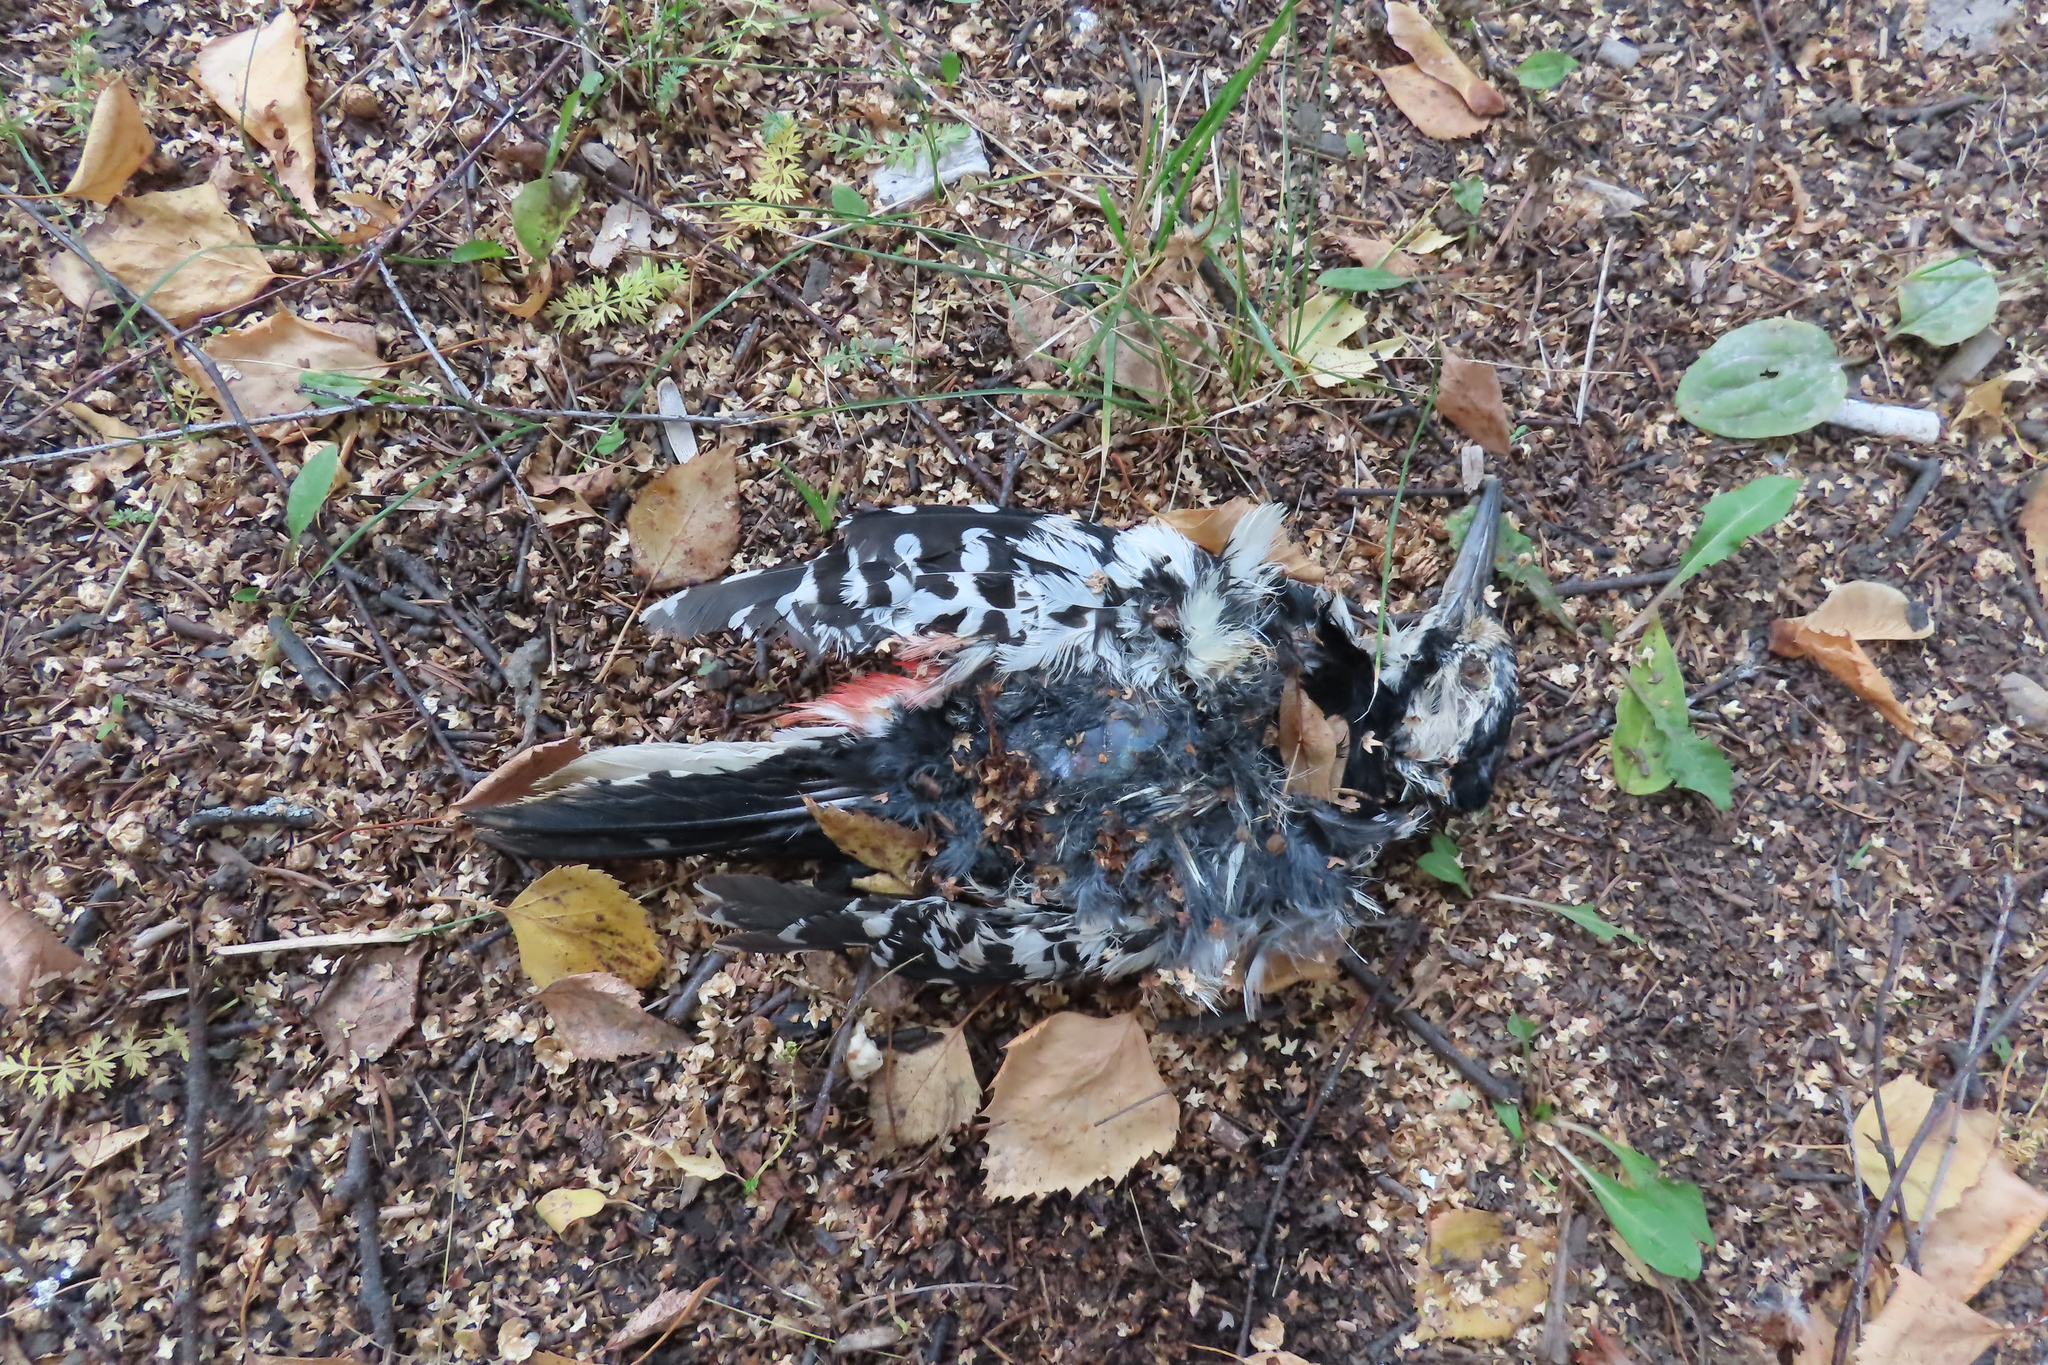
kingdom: Animalia
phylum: Chordata
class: Aves
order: Piciformes
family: Picidae
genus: Dendrocopos
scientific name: Dendrocopos leucotos
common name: White-backed woodpecker
